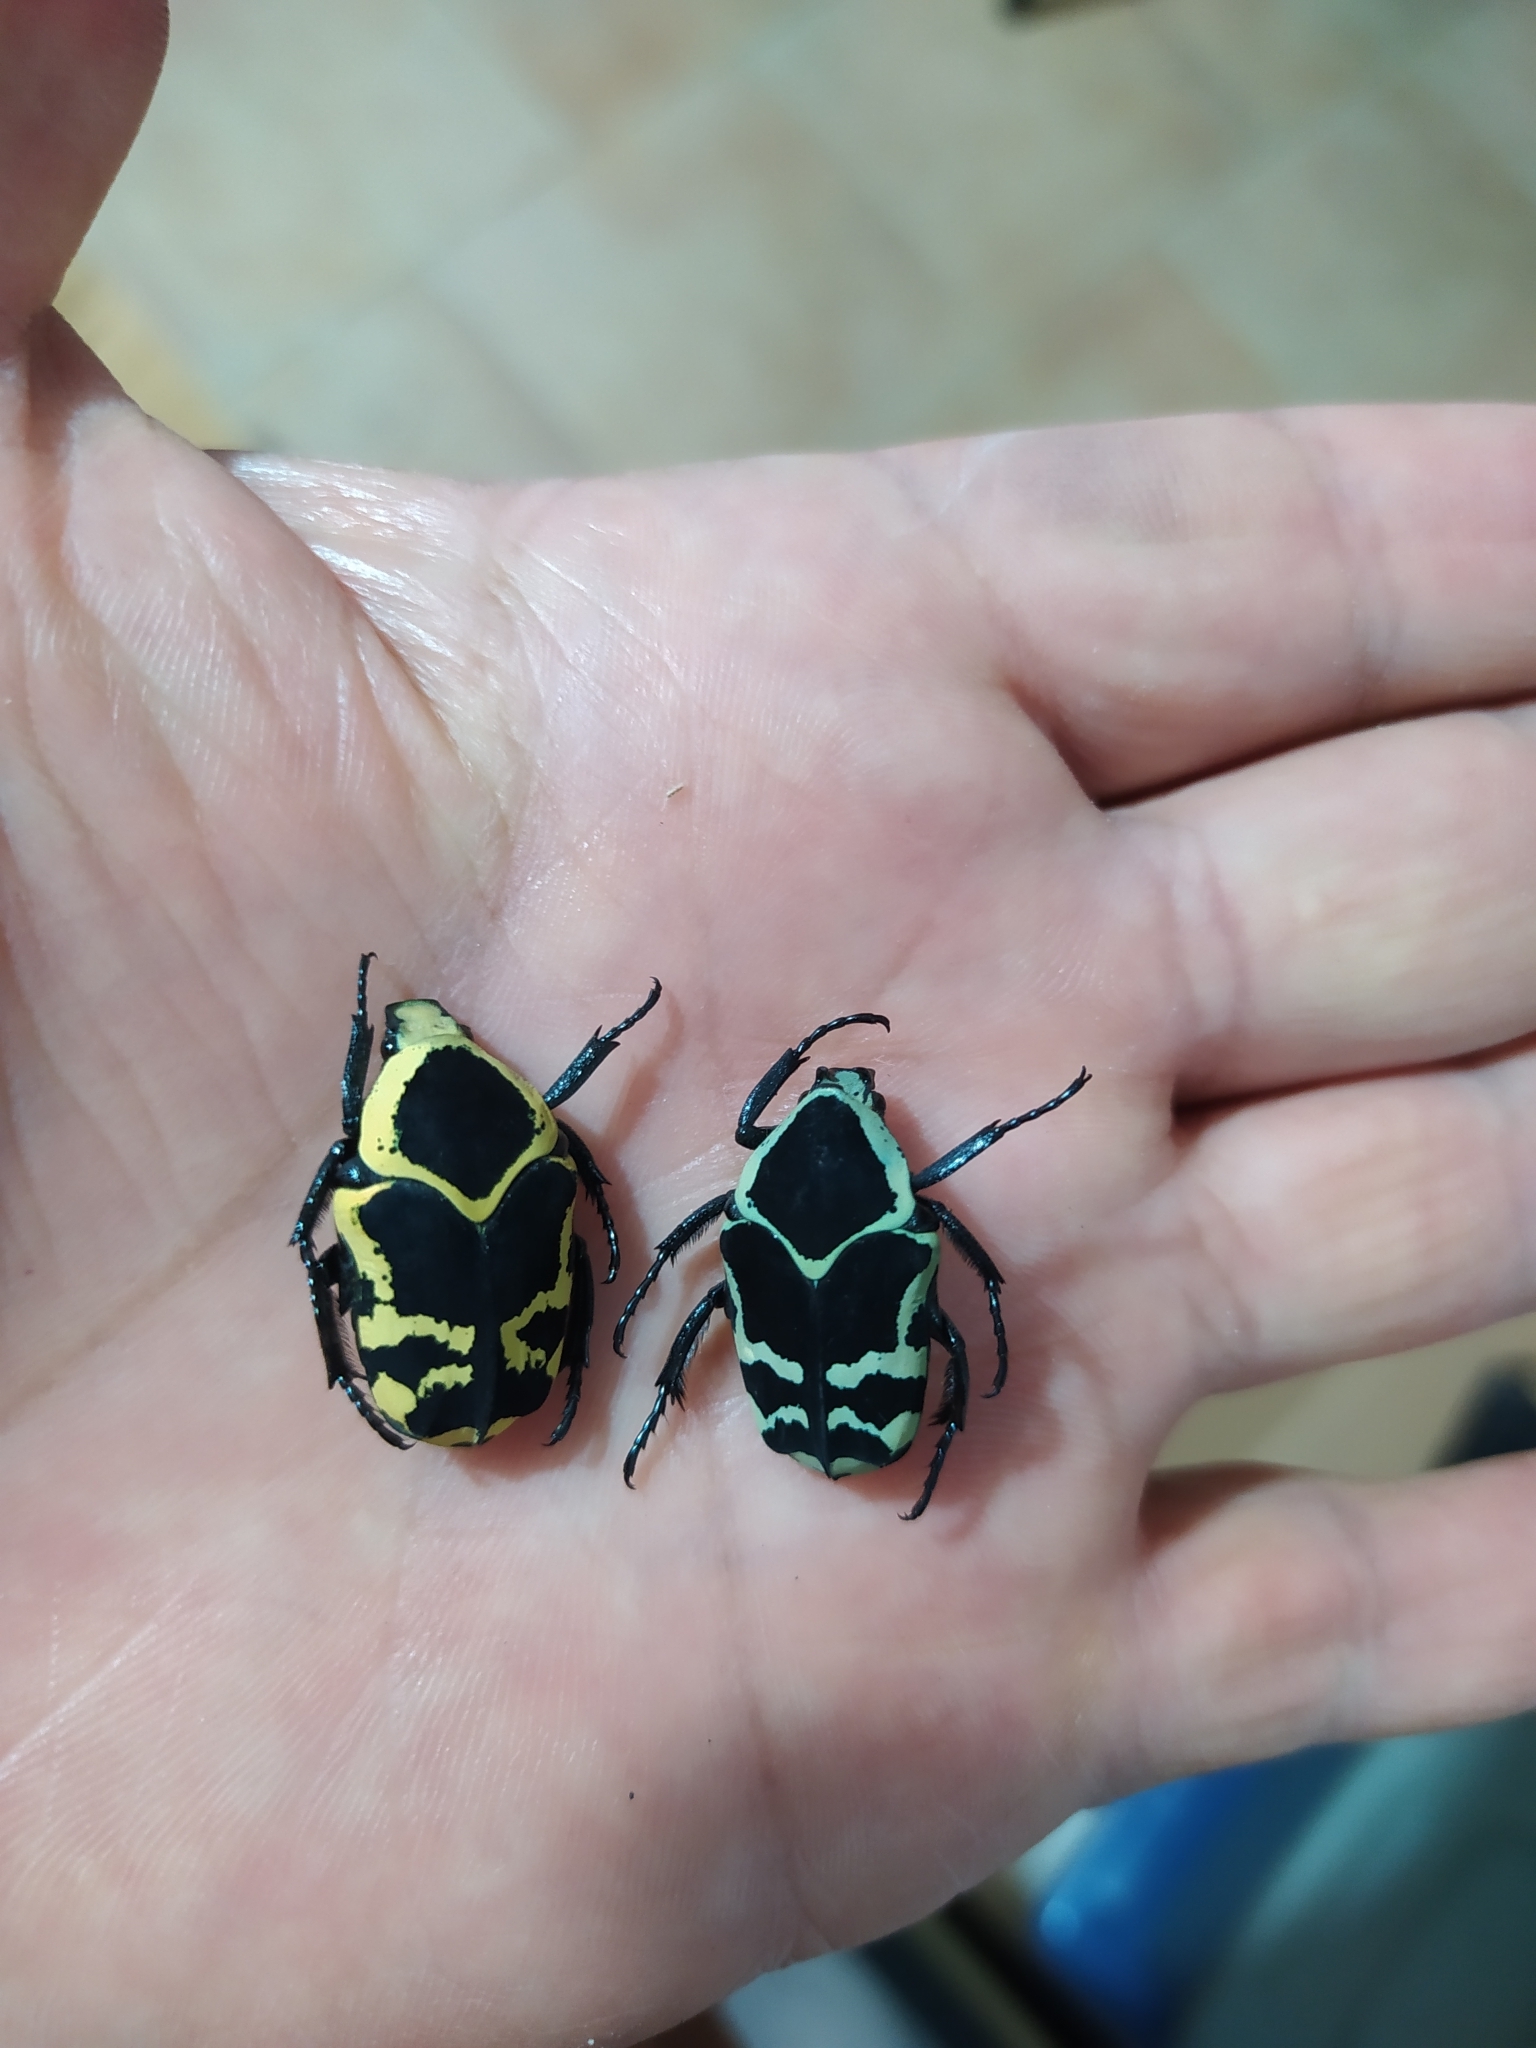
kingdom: Animalia
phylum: Arthropoda
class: Insecta
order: Coleoptera
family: Scarabaeidae
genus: Argyripa
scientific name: Argyripa porioni
